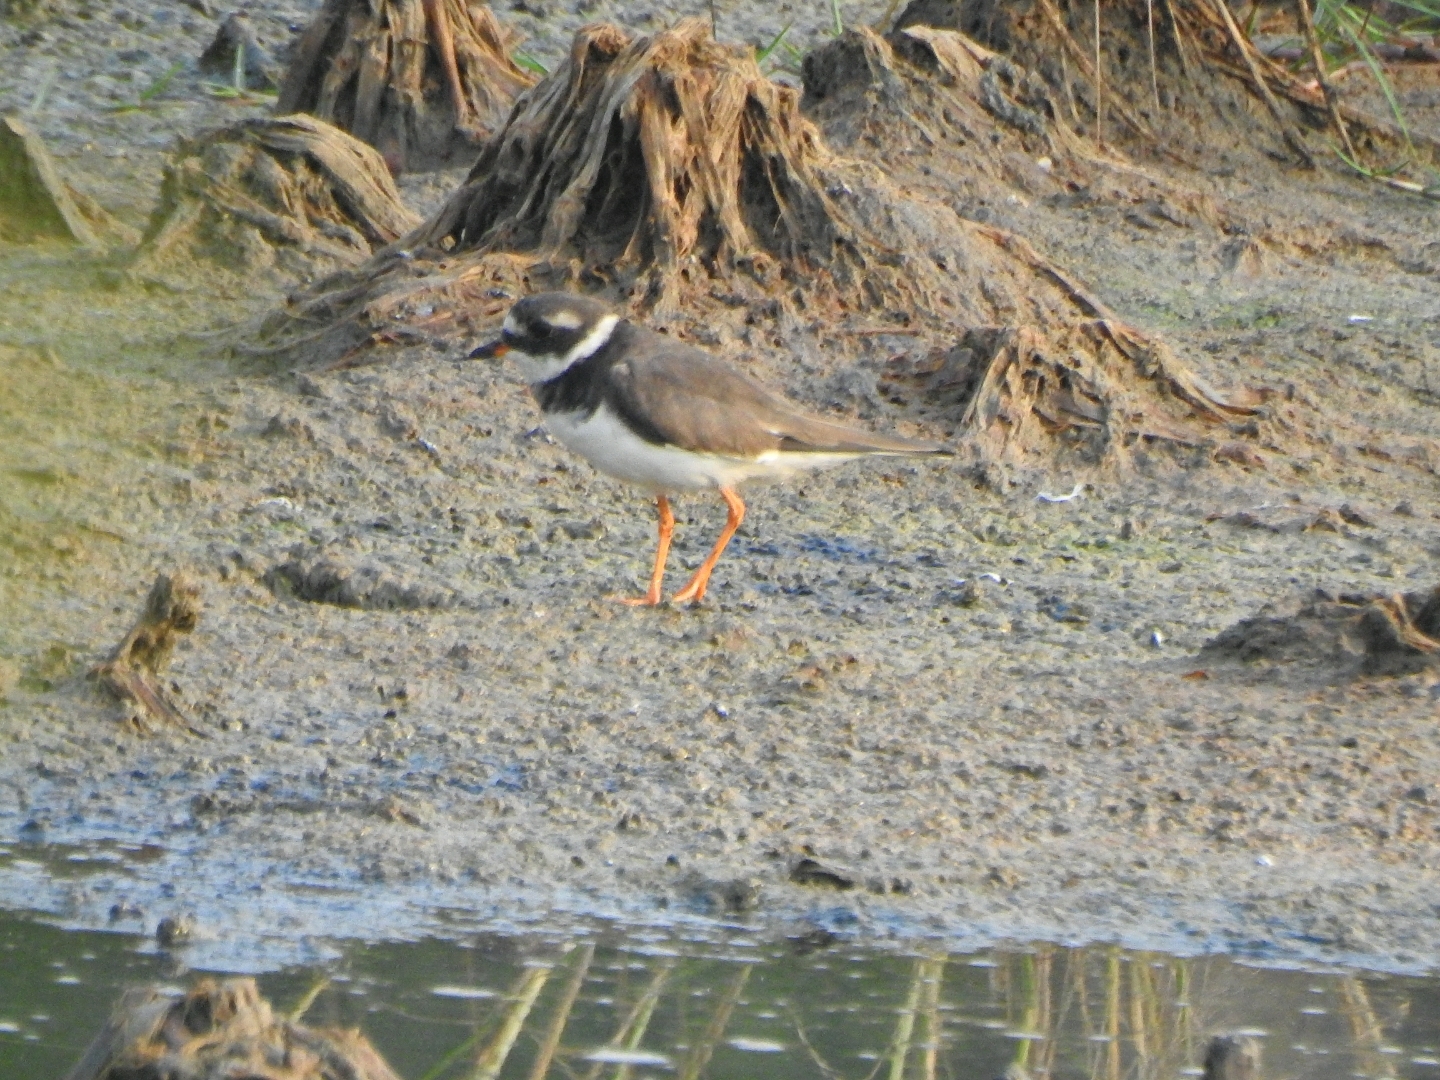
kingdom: Animalia
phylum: Chordata
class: Aves
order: Charadriiformes
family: Charadriidae
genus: Charadrius
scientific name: Charadrius hiaticula
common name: Common ringed plover
